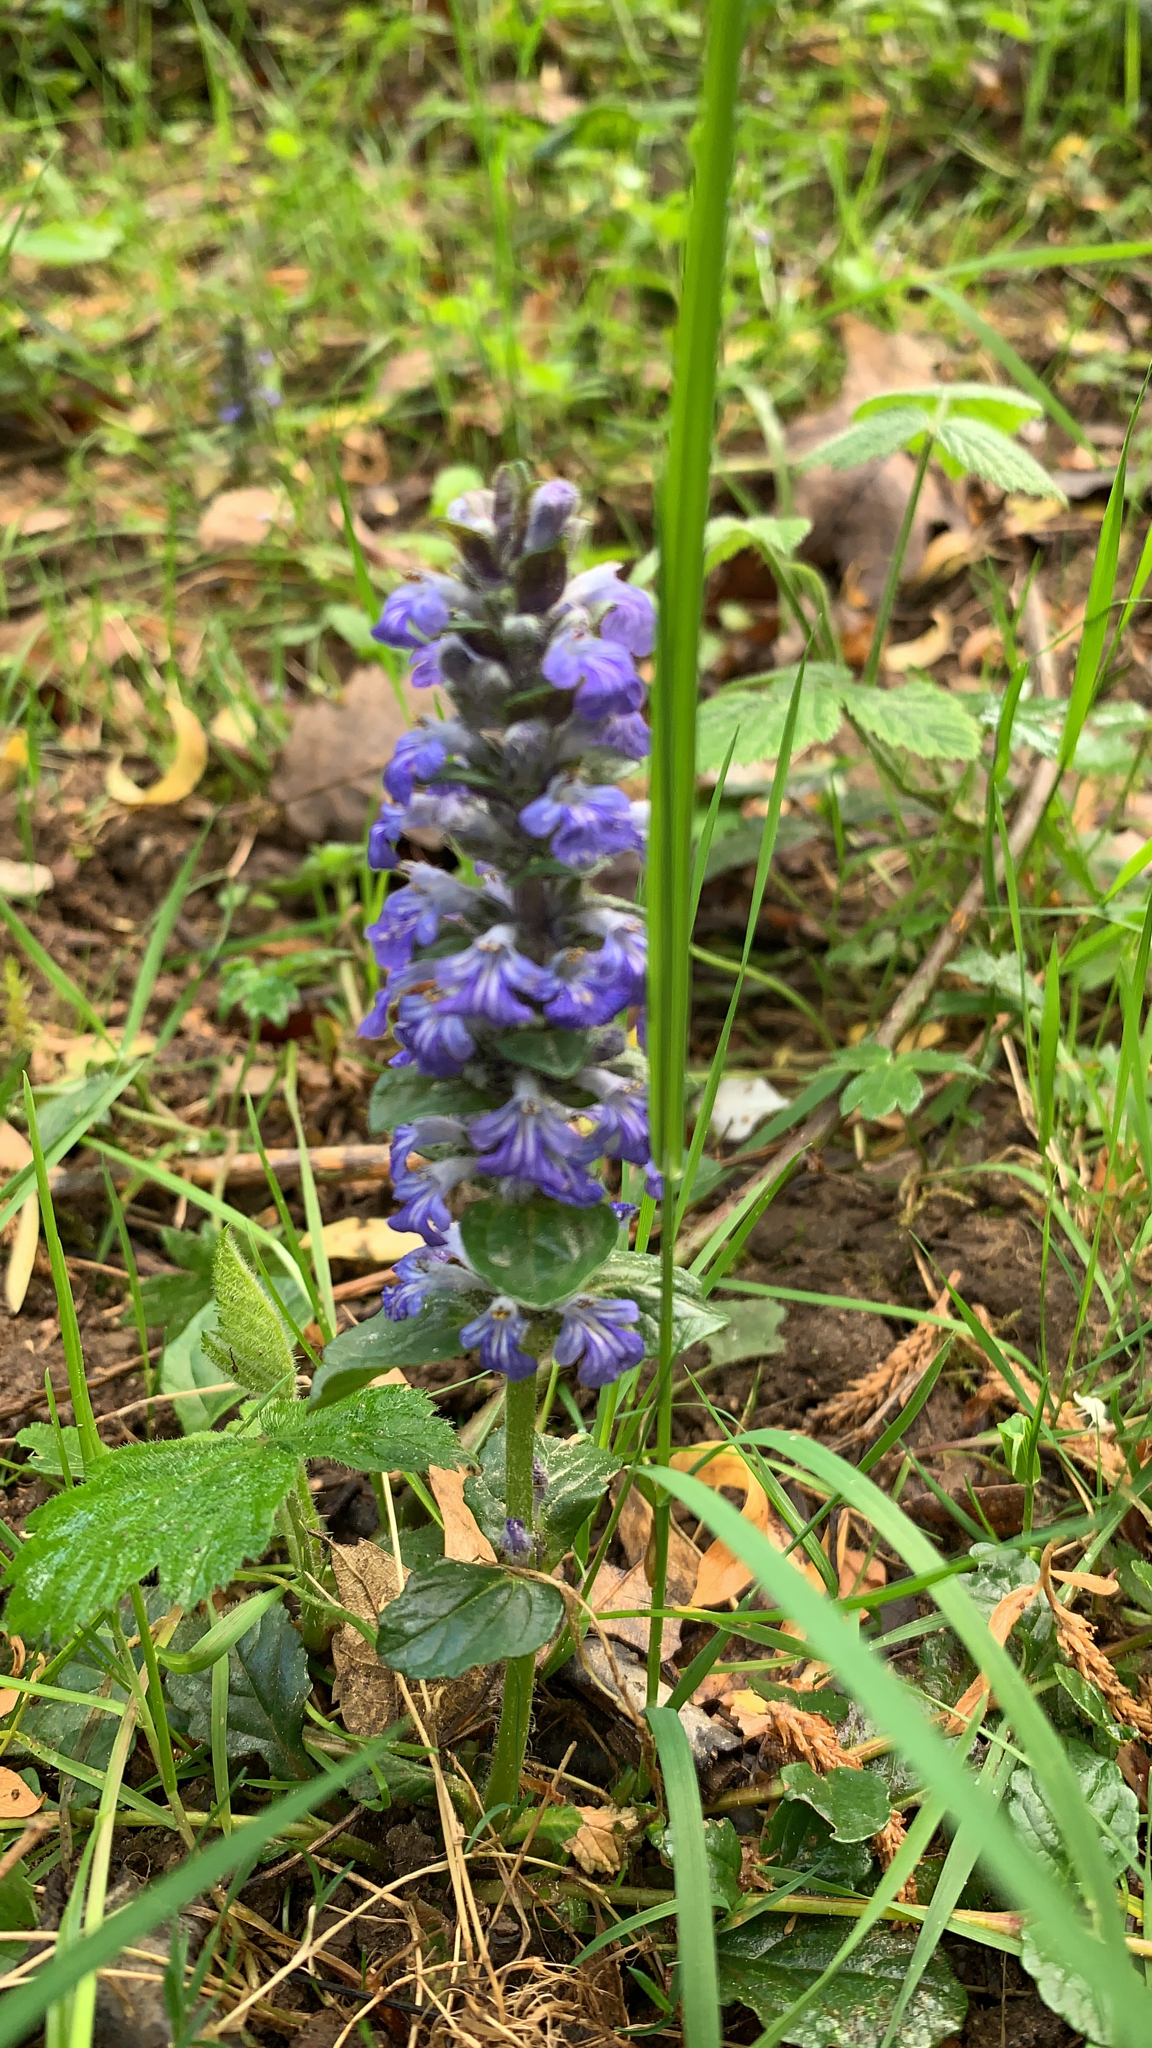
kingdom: Plantae
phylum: Tracheophyta
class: Magnoliopsida
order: Lamiales
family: Lamiaceae
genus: Ajuga
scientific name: Ajuga reptans
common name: Bugle
